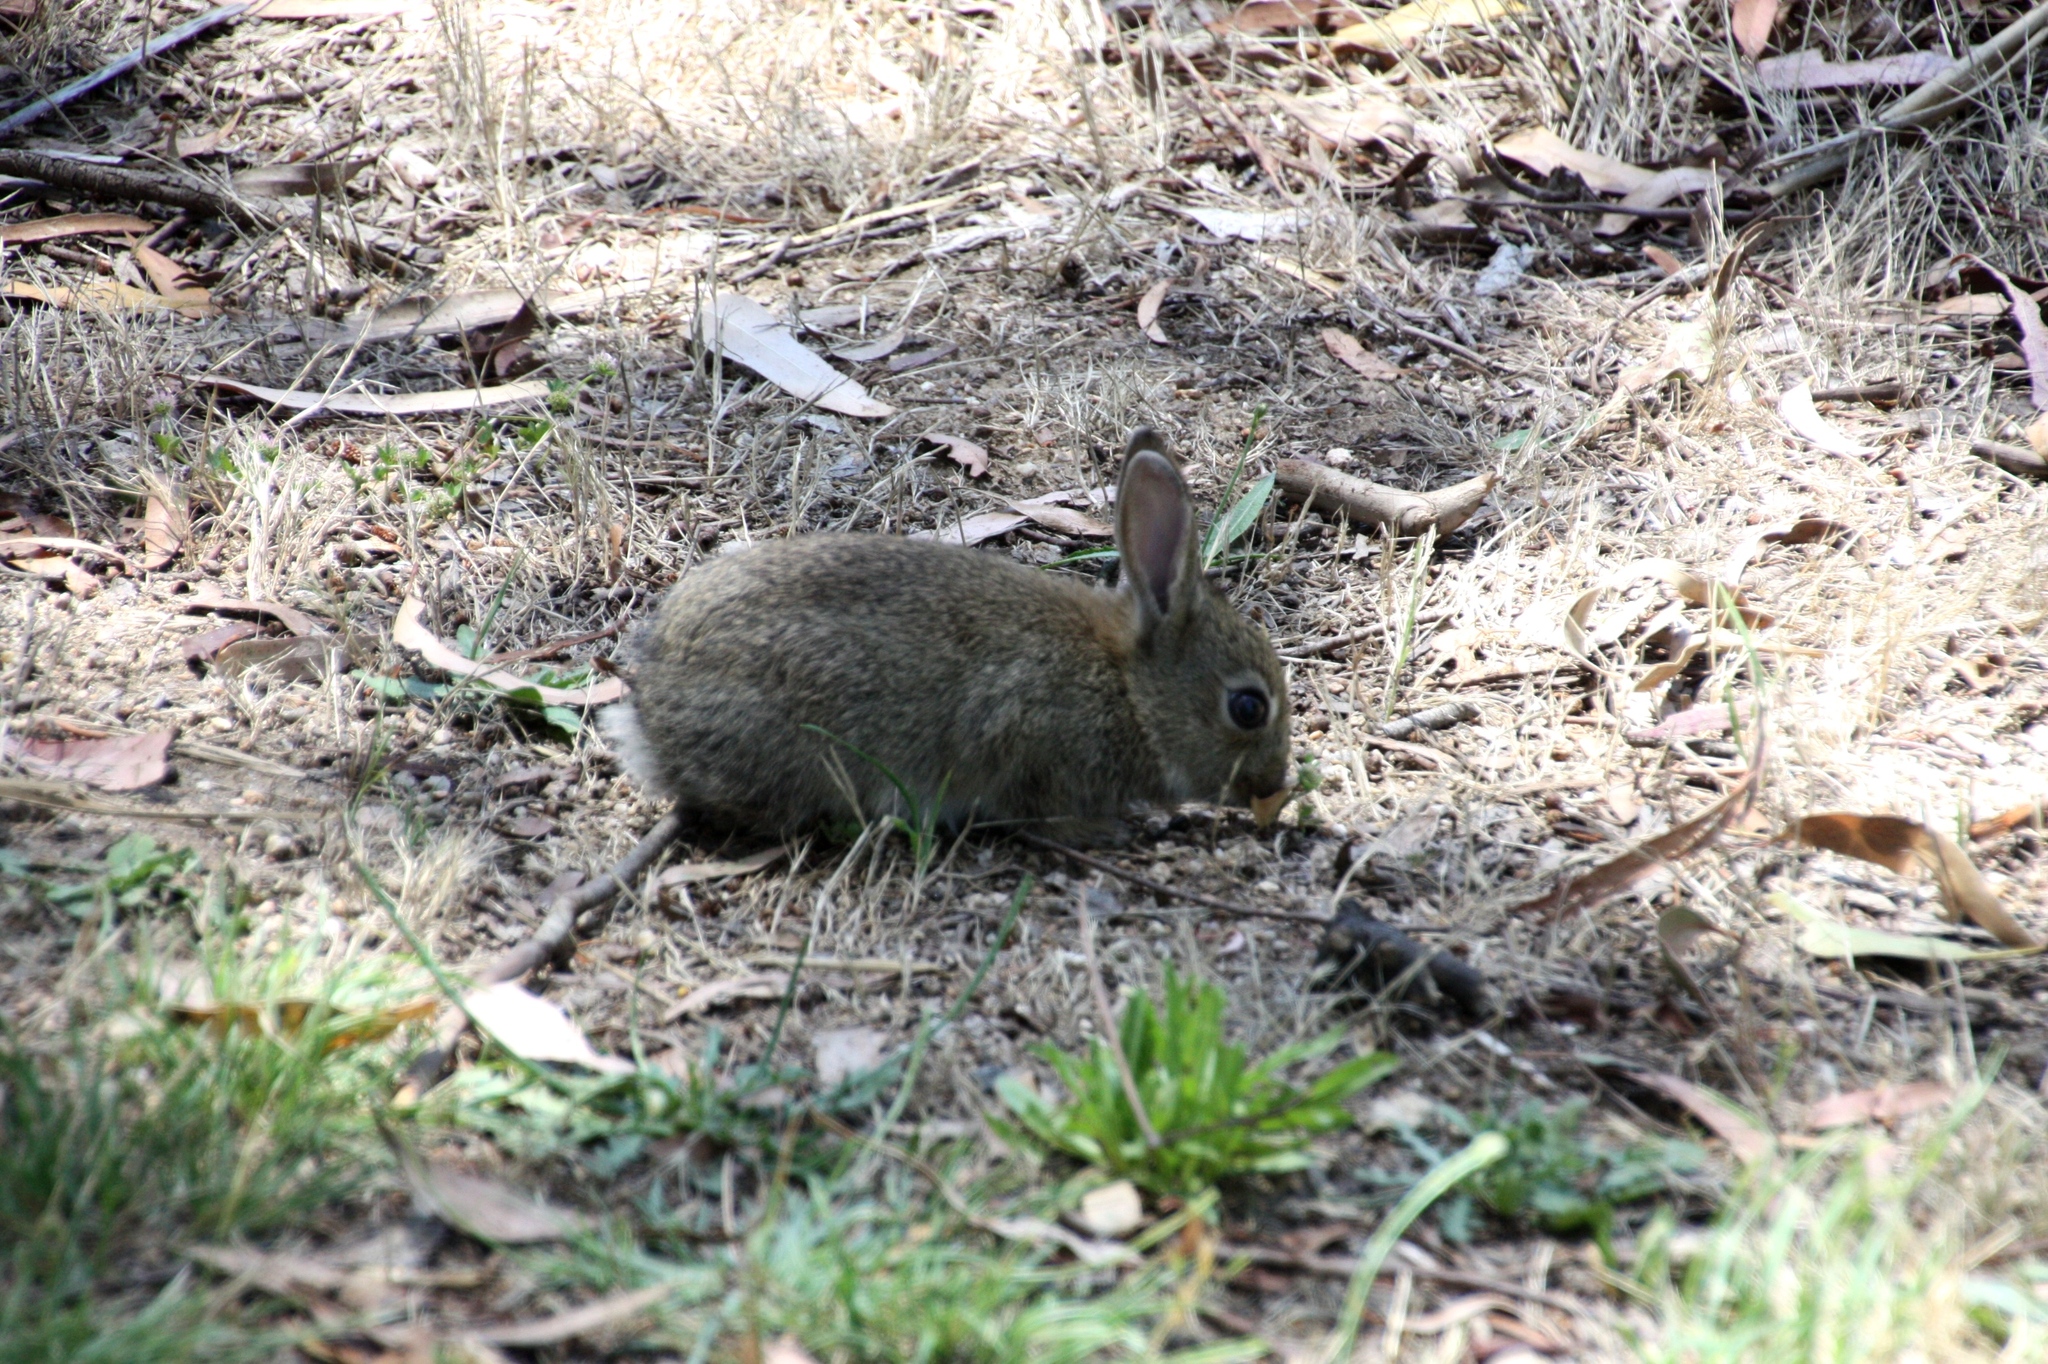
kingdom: Animalia
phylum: Chordata
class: Mammalia
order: Lagomorpha
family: Leporidae
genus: Oryctolagus
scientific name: Oryctolagus cuniculus
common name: European rabbit
